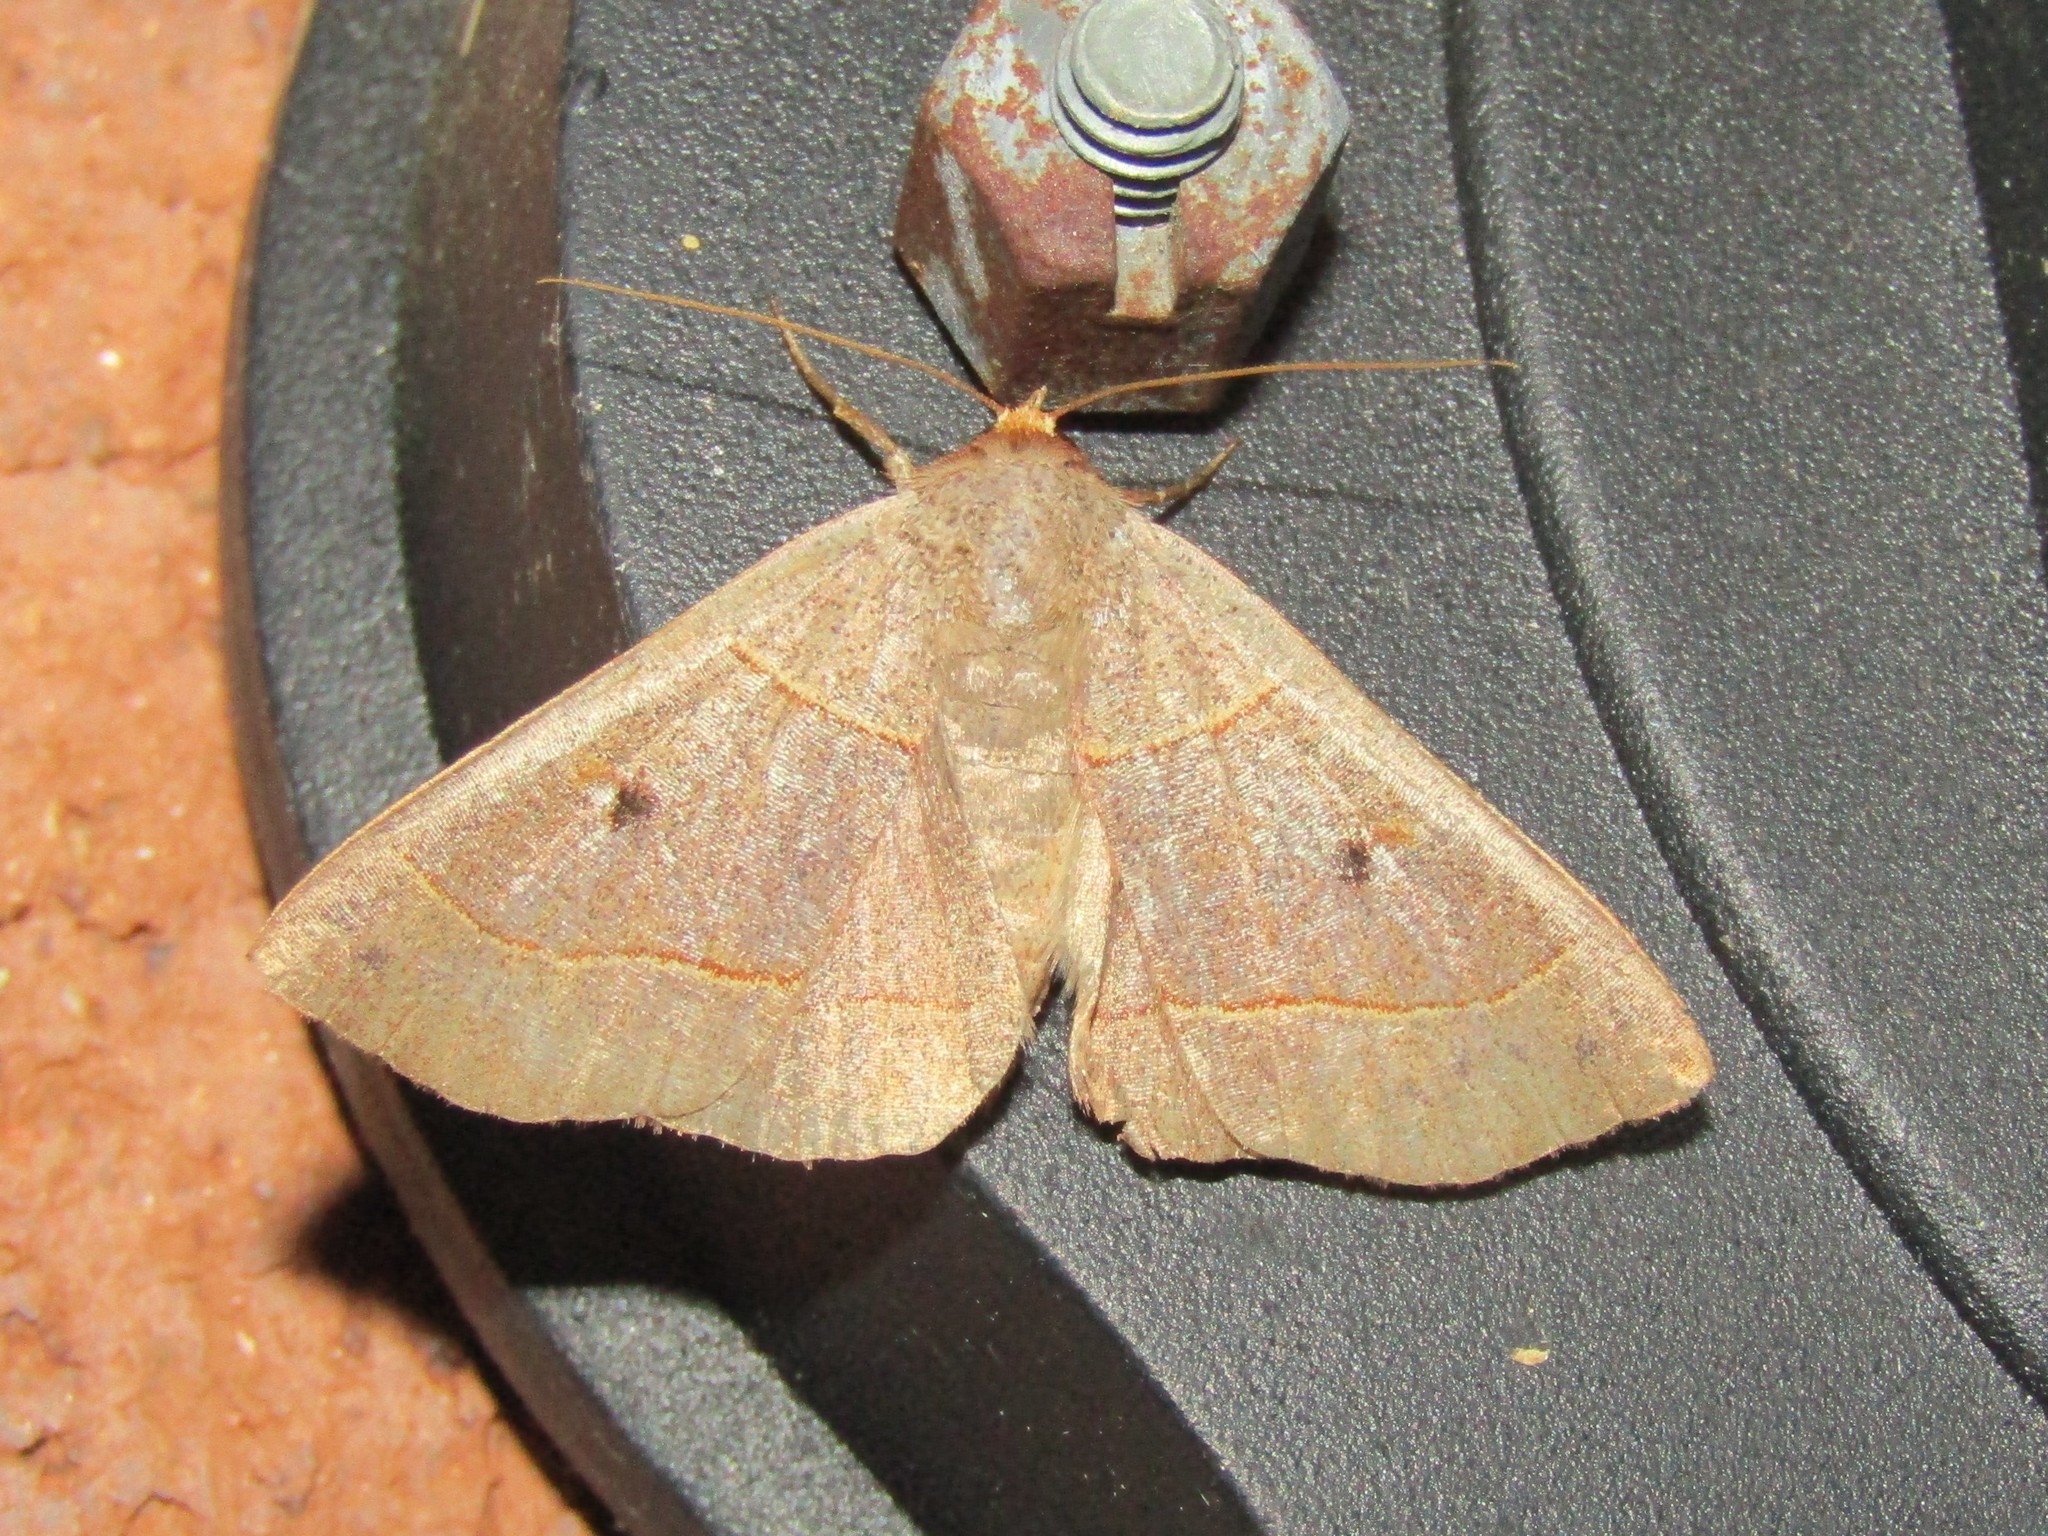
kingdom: Animalia
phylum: Arthropoda
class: Insecta
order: Lepidoptera
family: Erebidae
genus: Panopoda
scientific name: Panopoda rufimargo
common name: Red-lined panopoda moth
